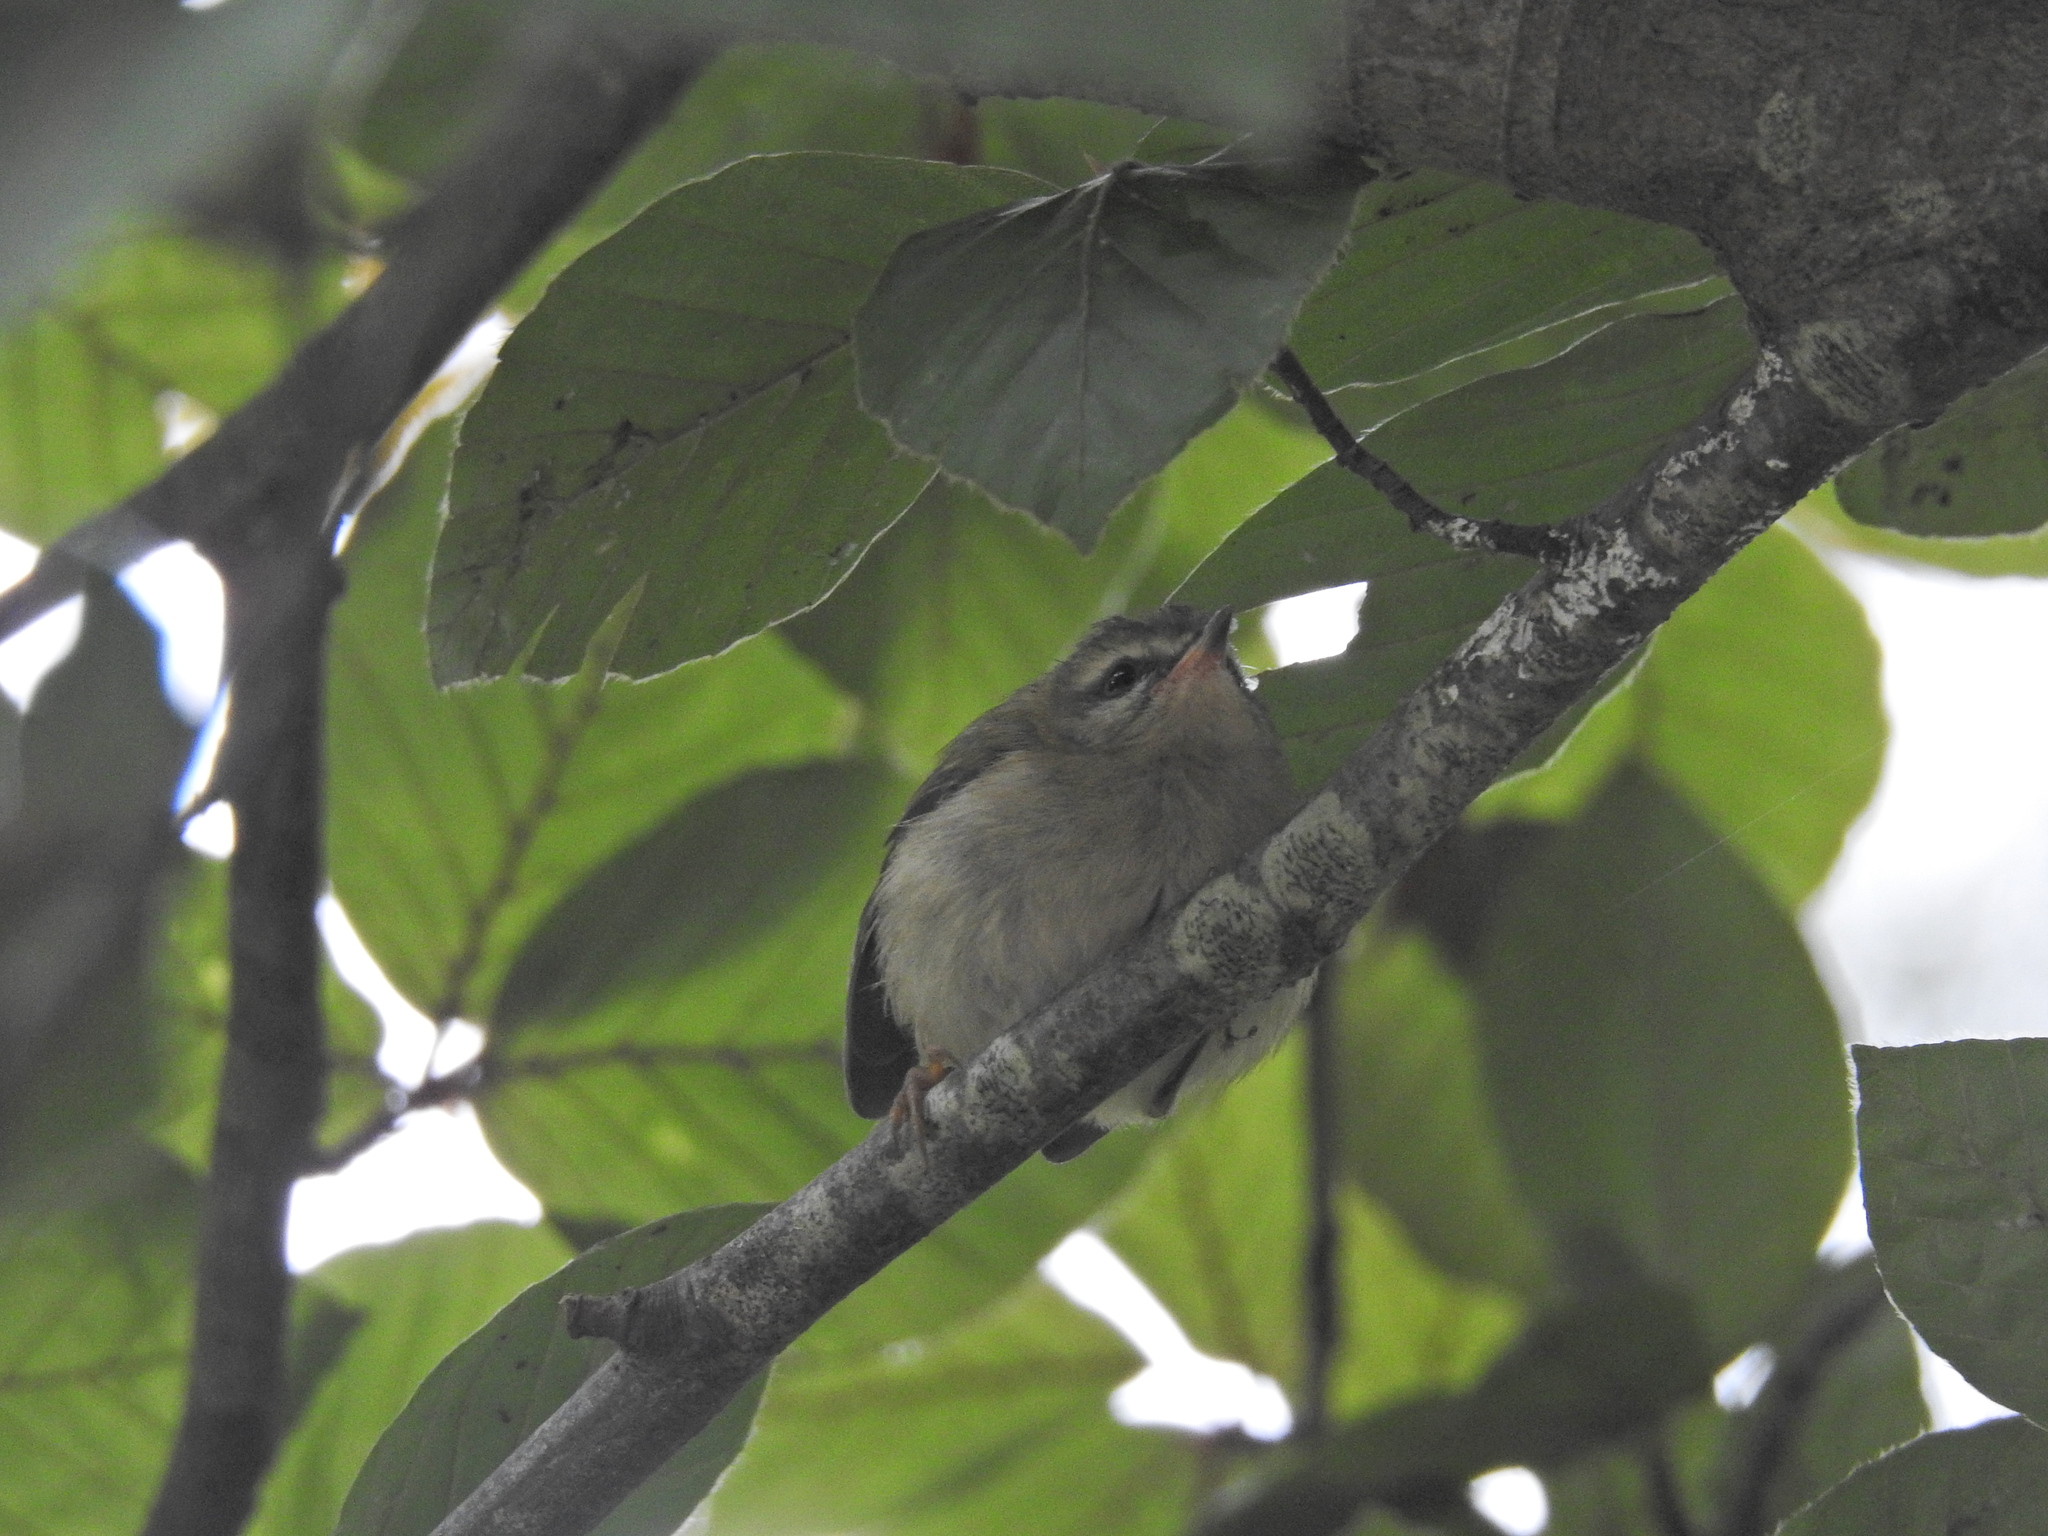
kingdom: Animalia
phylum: Chordata
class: Aves
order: Passeriformes
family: Regulidae
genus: Regulus
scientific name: Regulus ignicapilla
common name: Firecrest
